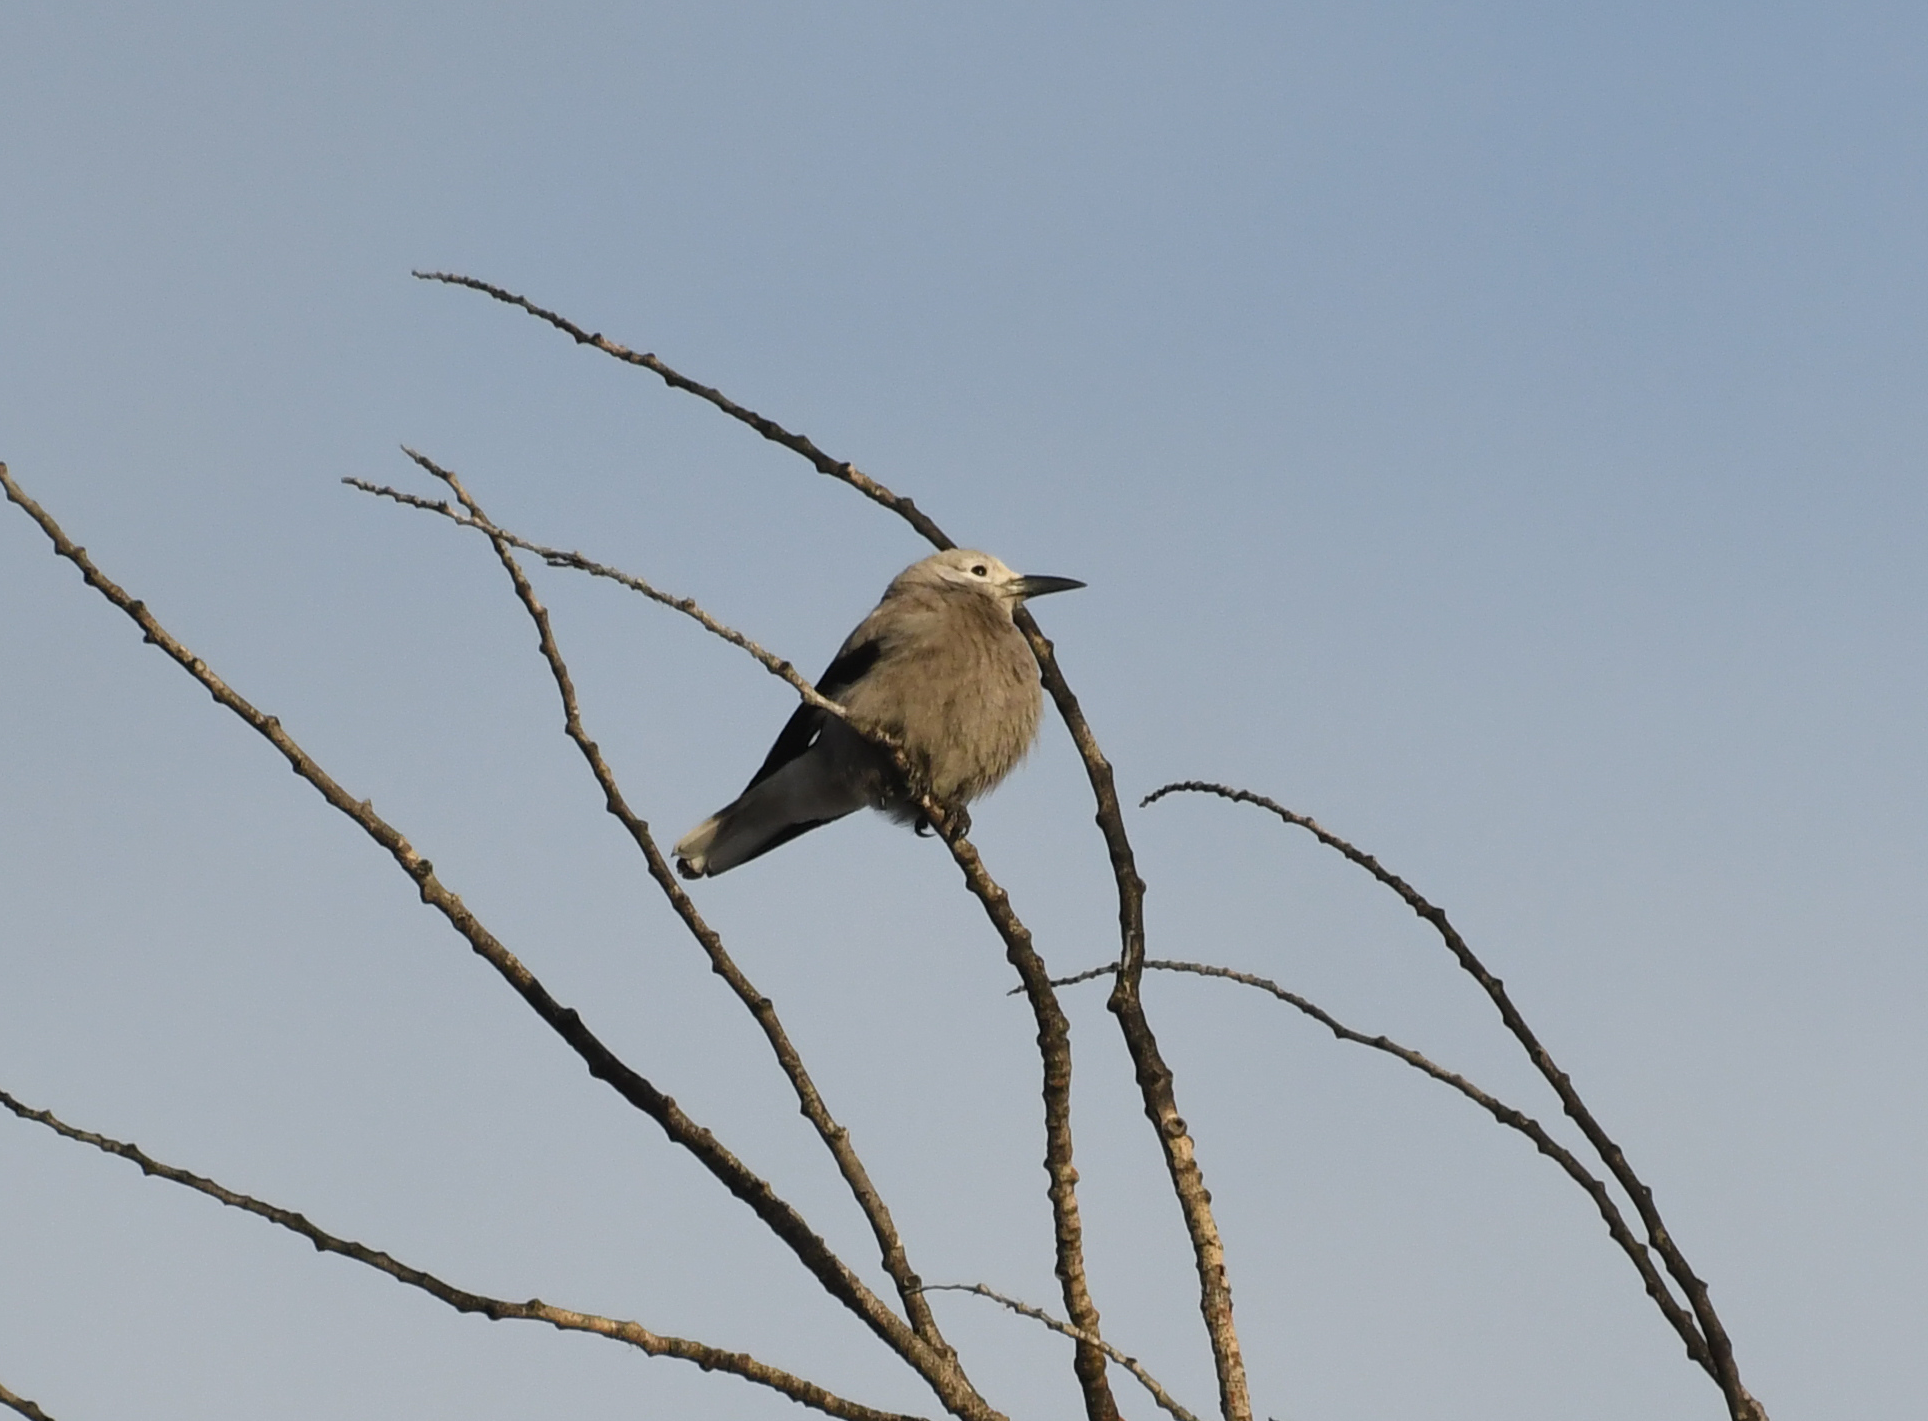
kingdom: Animalia
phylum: Chordata
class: Aves
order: Passeriformes
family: Corvidae
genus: Nucifraga
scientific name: Nucifraga columbiana
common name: Clark's nutcracker
